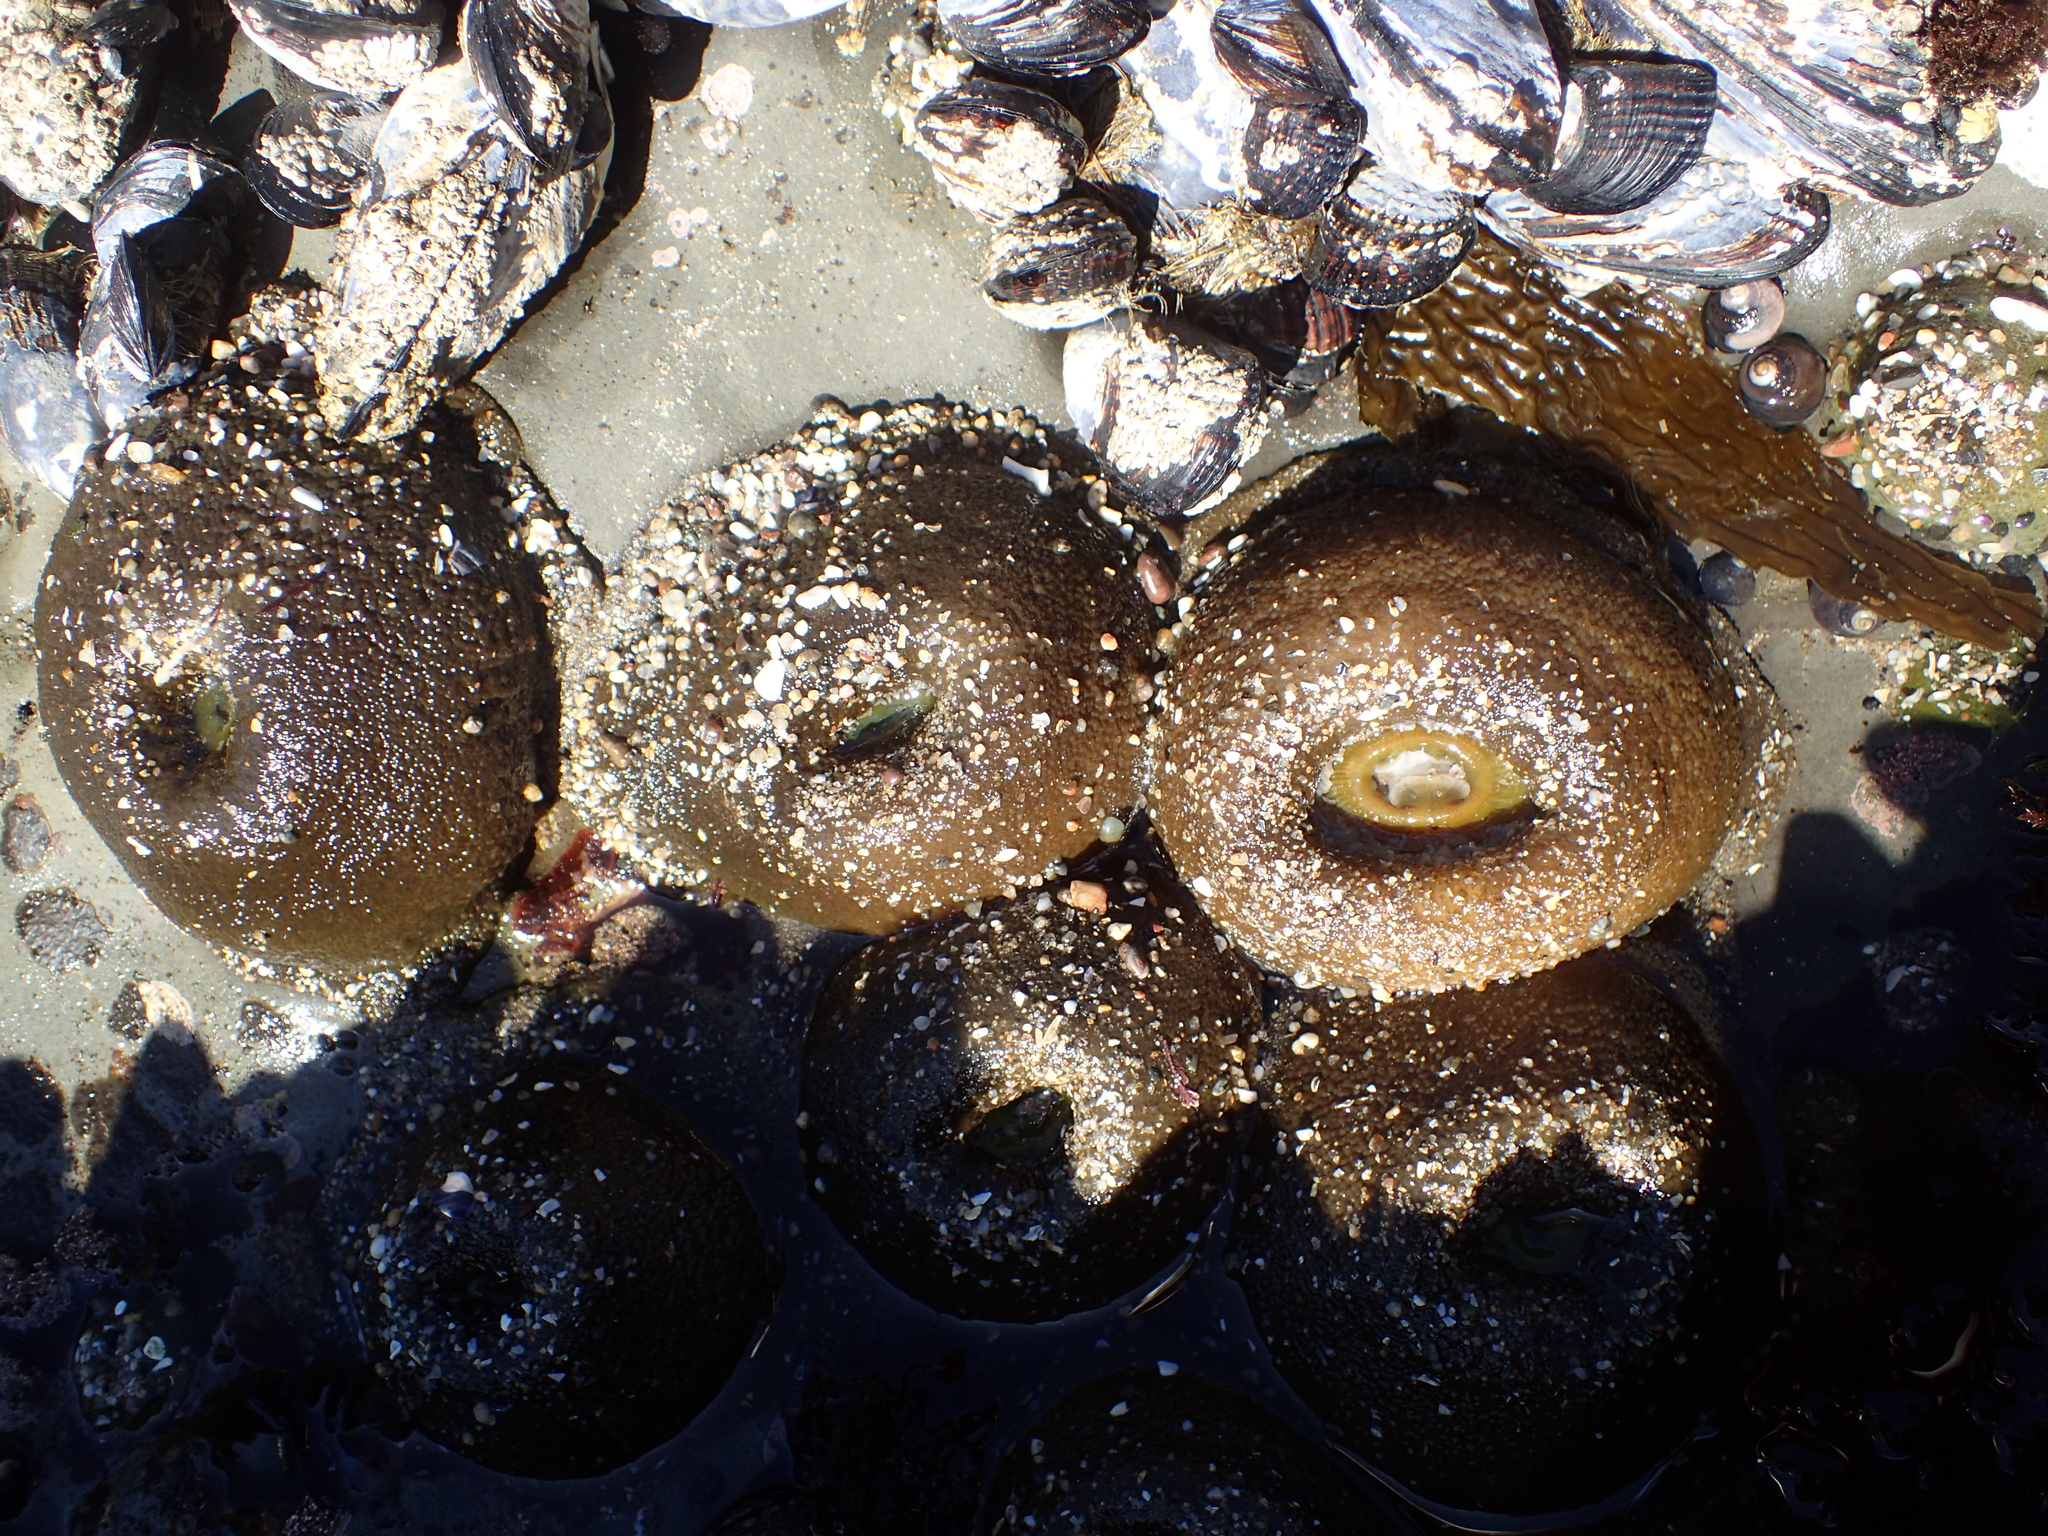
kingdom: Animalia
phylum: Cnidaria
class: Anthozoa
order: Actiniaria
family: Actiniidae
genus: Anthopleura
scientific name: Anthopleura xanthogrammica
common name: Giant green anemone
